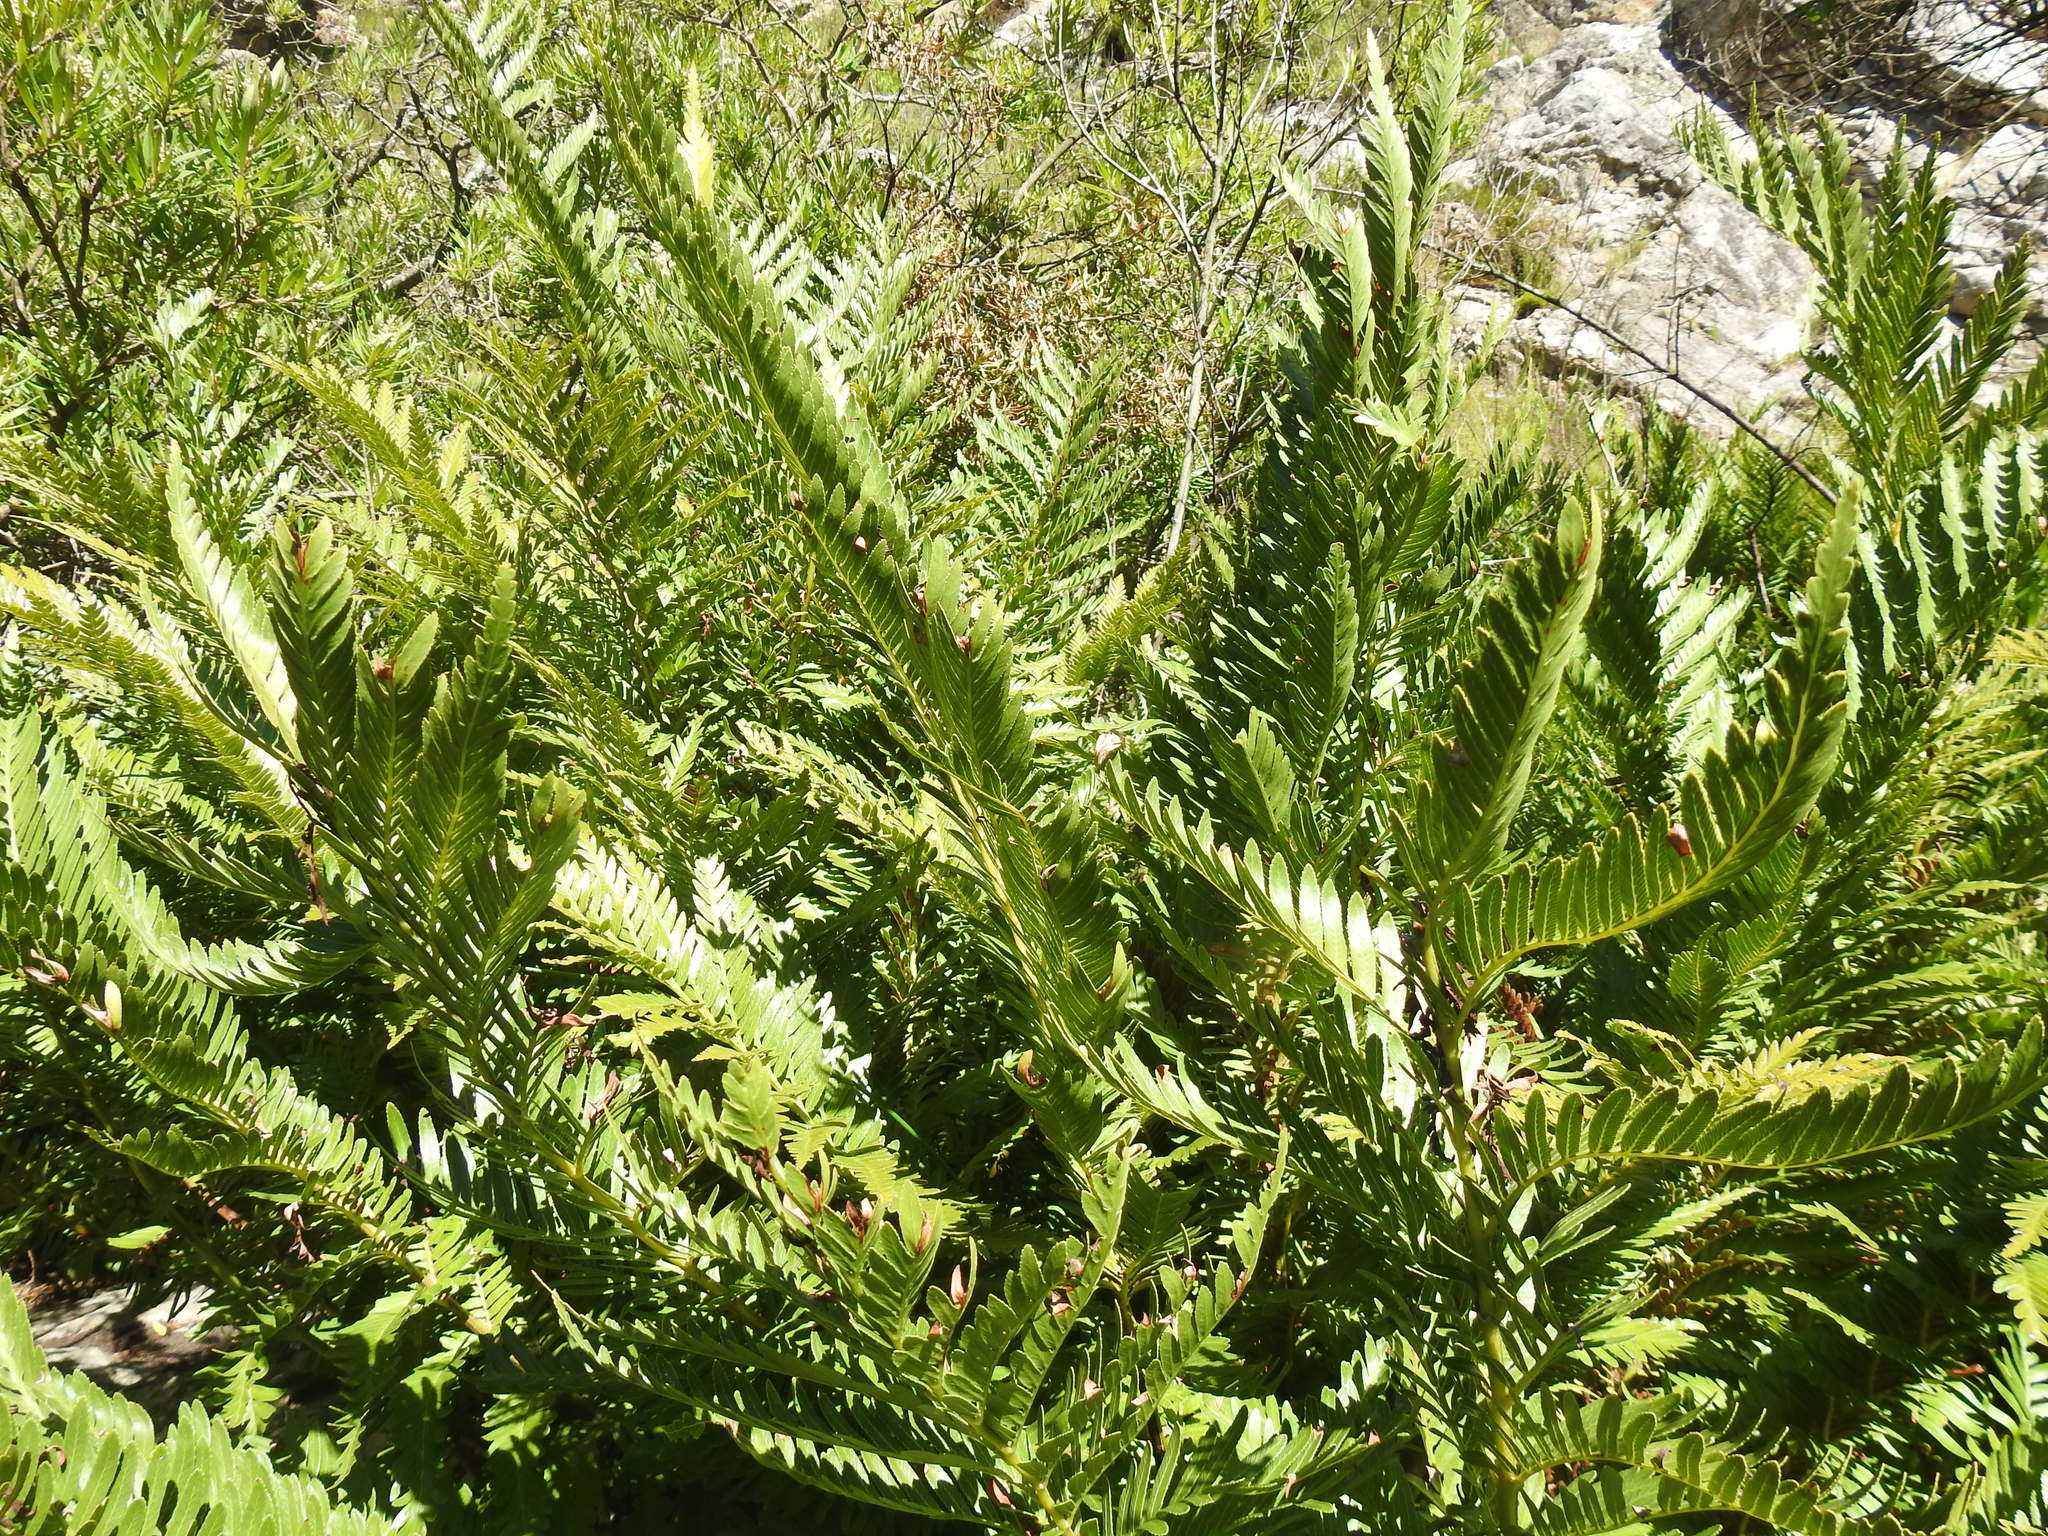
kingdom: Plantae
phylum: Tracheophyta
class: Polypodiopsida
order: Osmundales
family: Osmundaceae
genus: Todea
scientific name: Todea barbara
